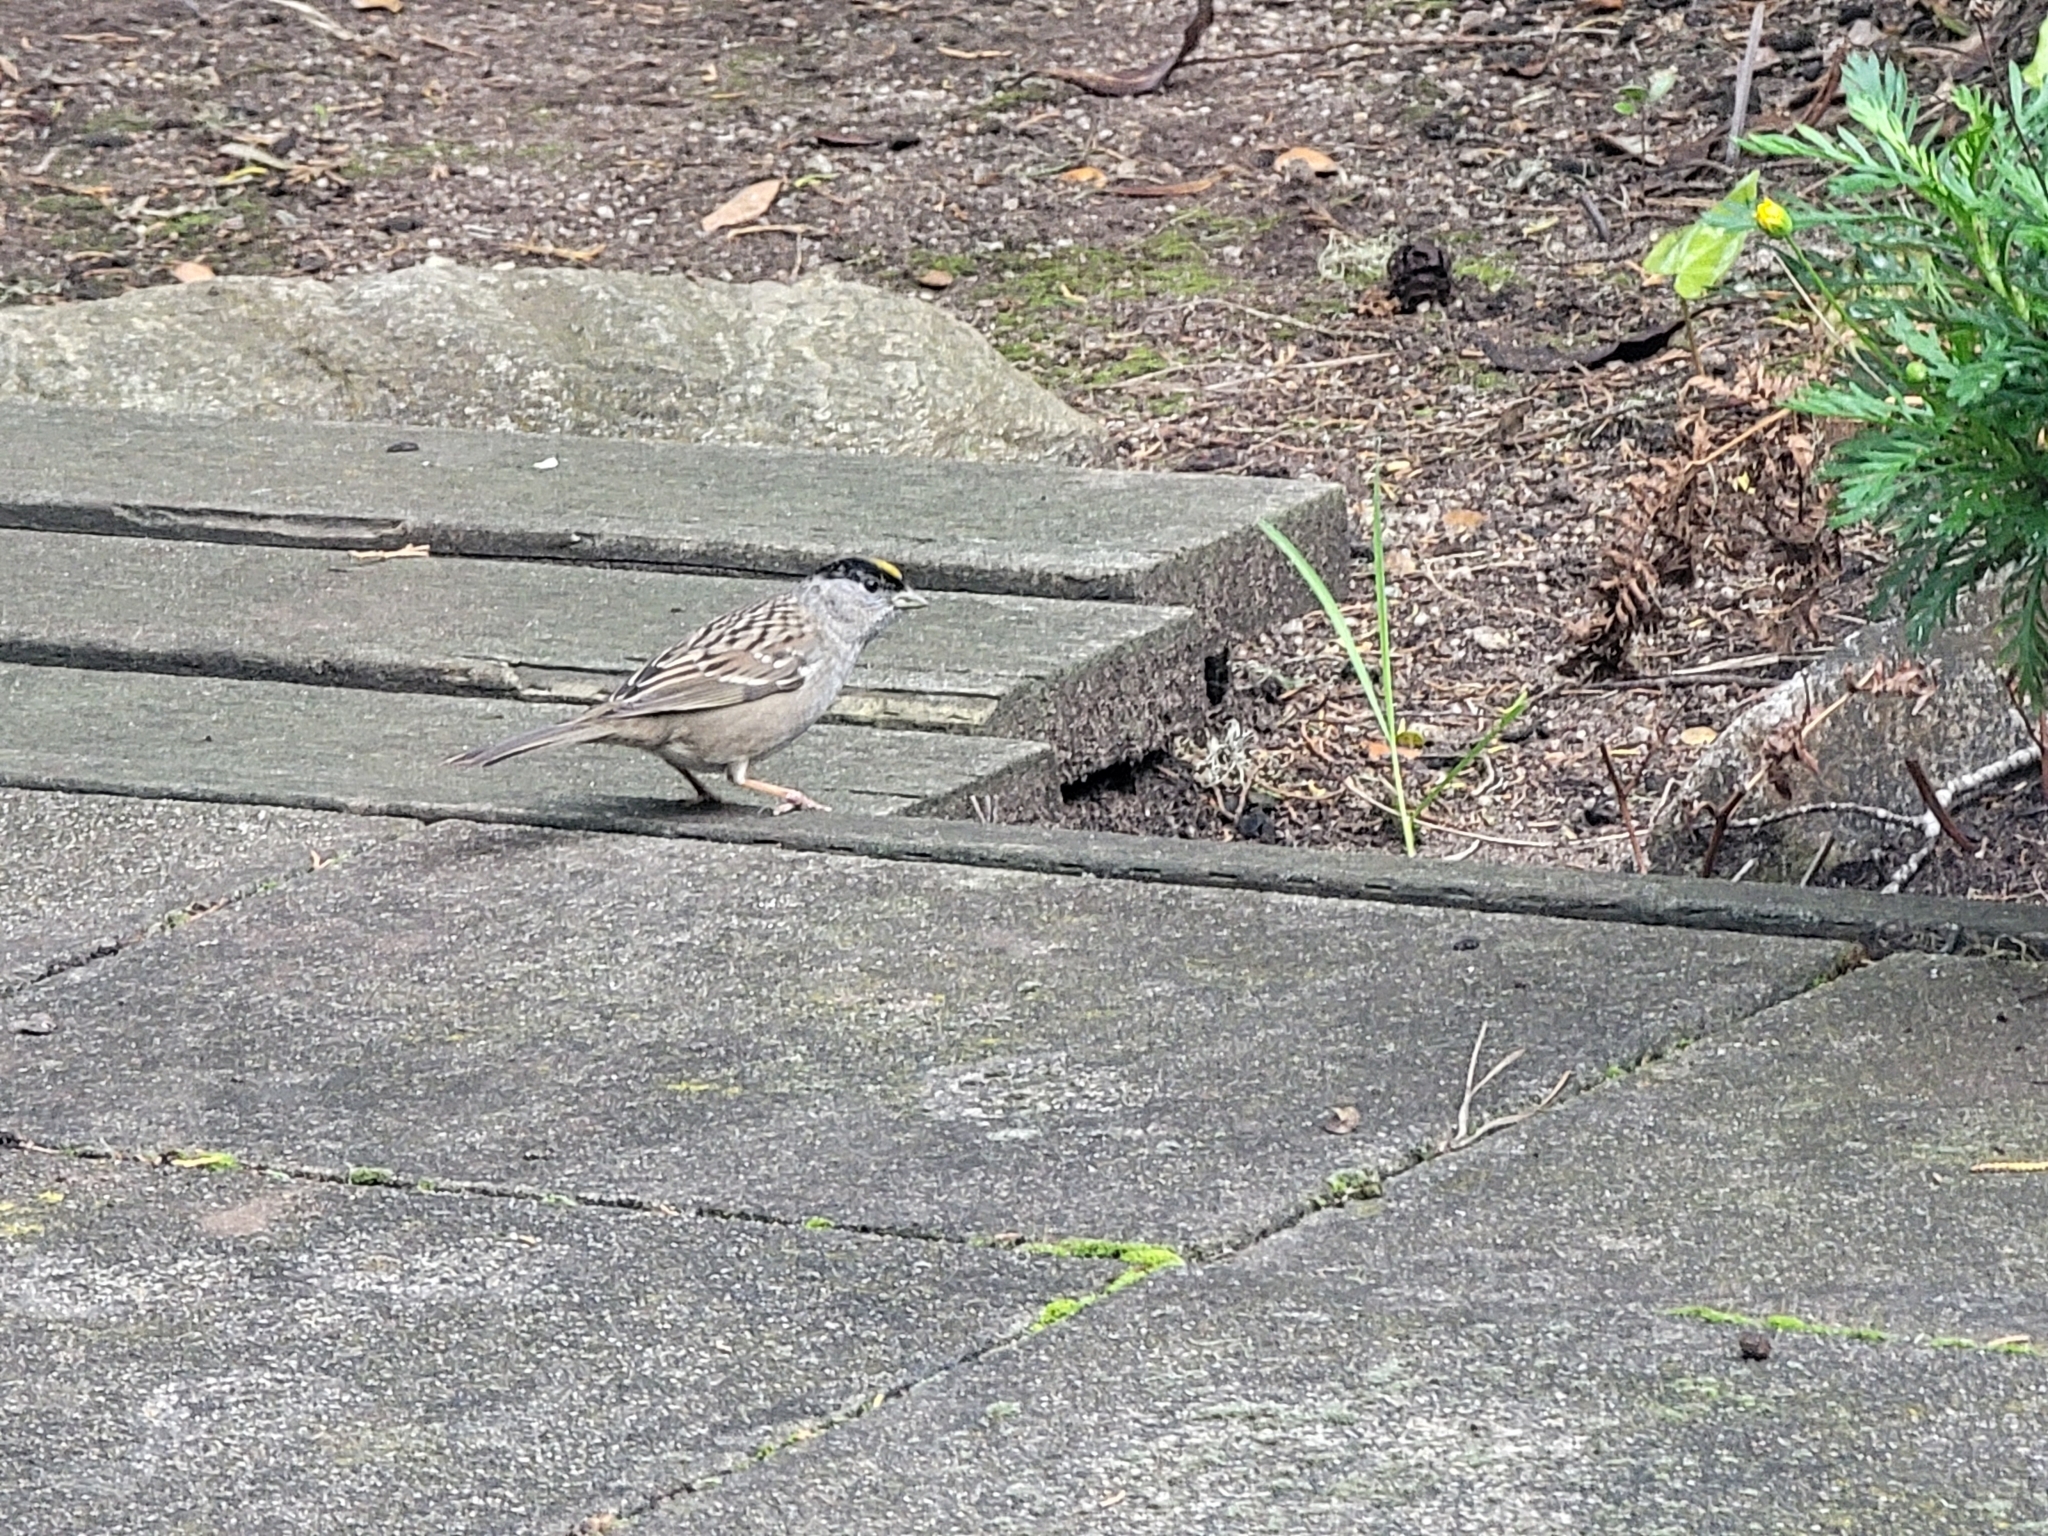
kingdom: Animalia
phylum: Chordata
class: Aves
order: Passeriformes
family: Passerellidae
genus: Zonotrichia
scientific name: Zonotrichia atricapilla
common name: Golden-crowned sparrow
